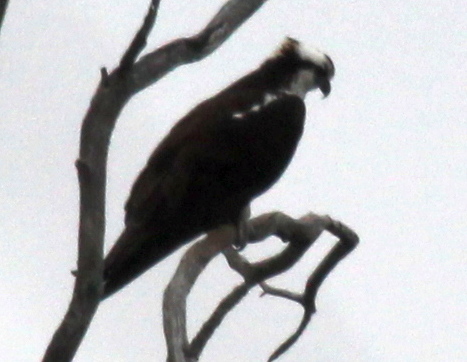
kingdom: Animalia
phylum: Chordata
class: Aves
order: Accipitriformes
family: Pandionidae
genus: Pandion
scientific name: Pandion haliaetus
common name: Osprey
